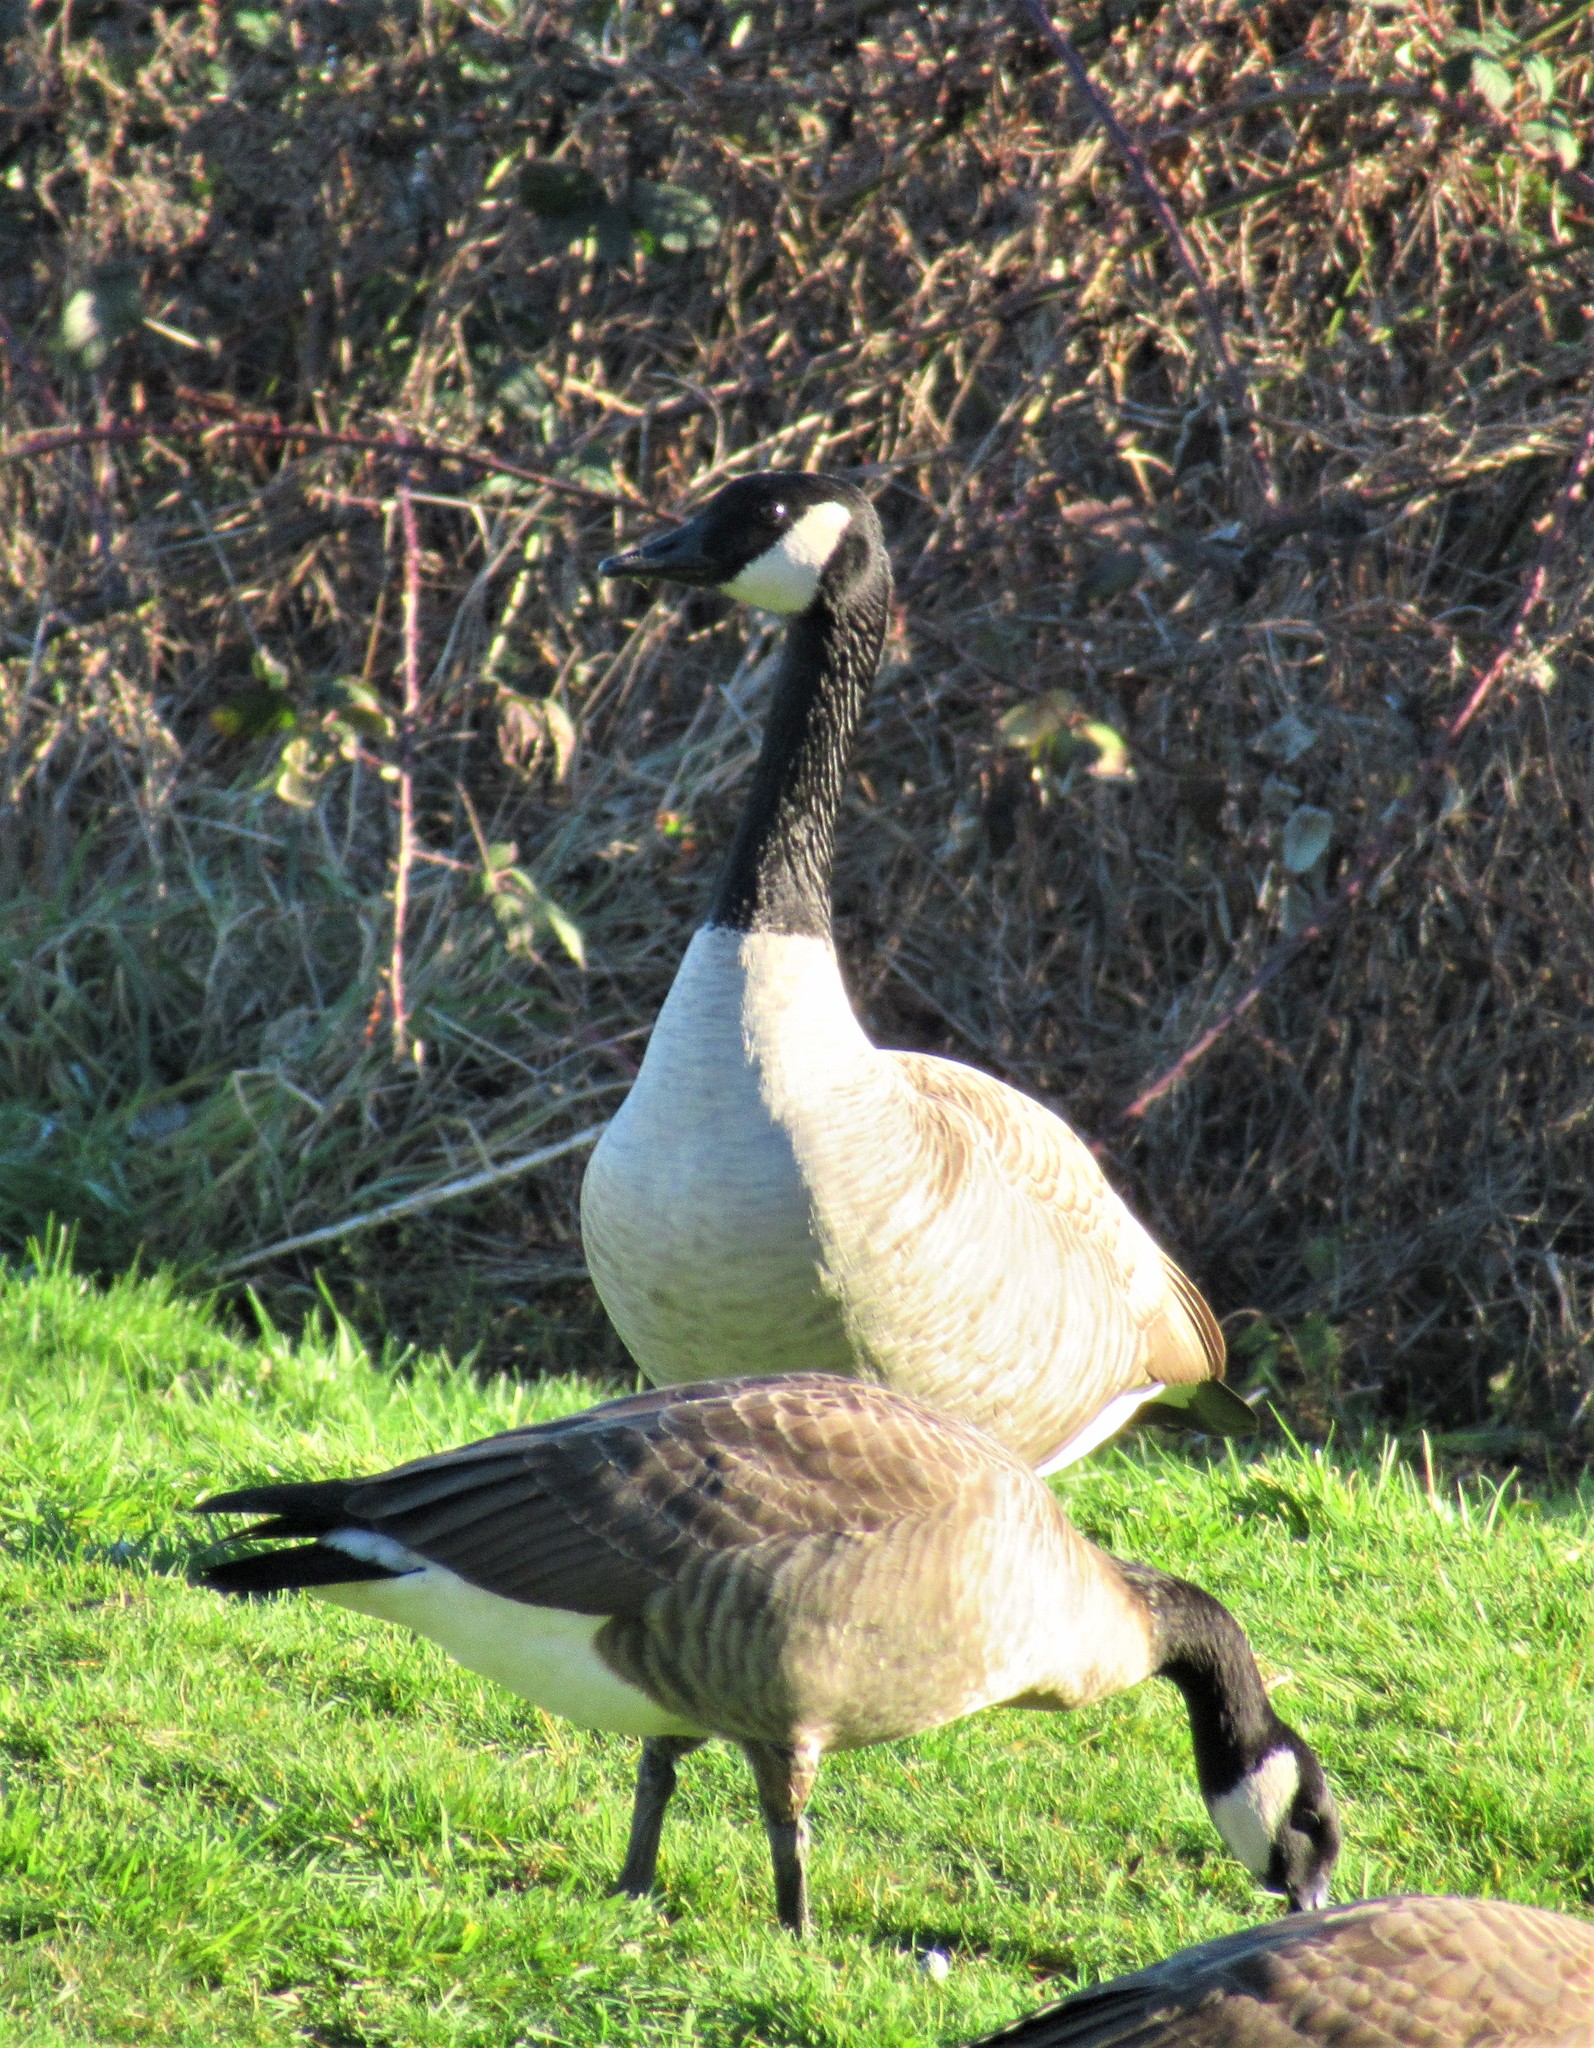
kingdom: Animalia
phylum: Chordata
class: Aves
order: Anseriformes
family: Anatidae
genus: Branta
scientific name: Branta canadensis
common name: Canada goose
